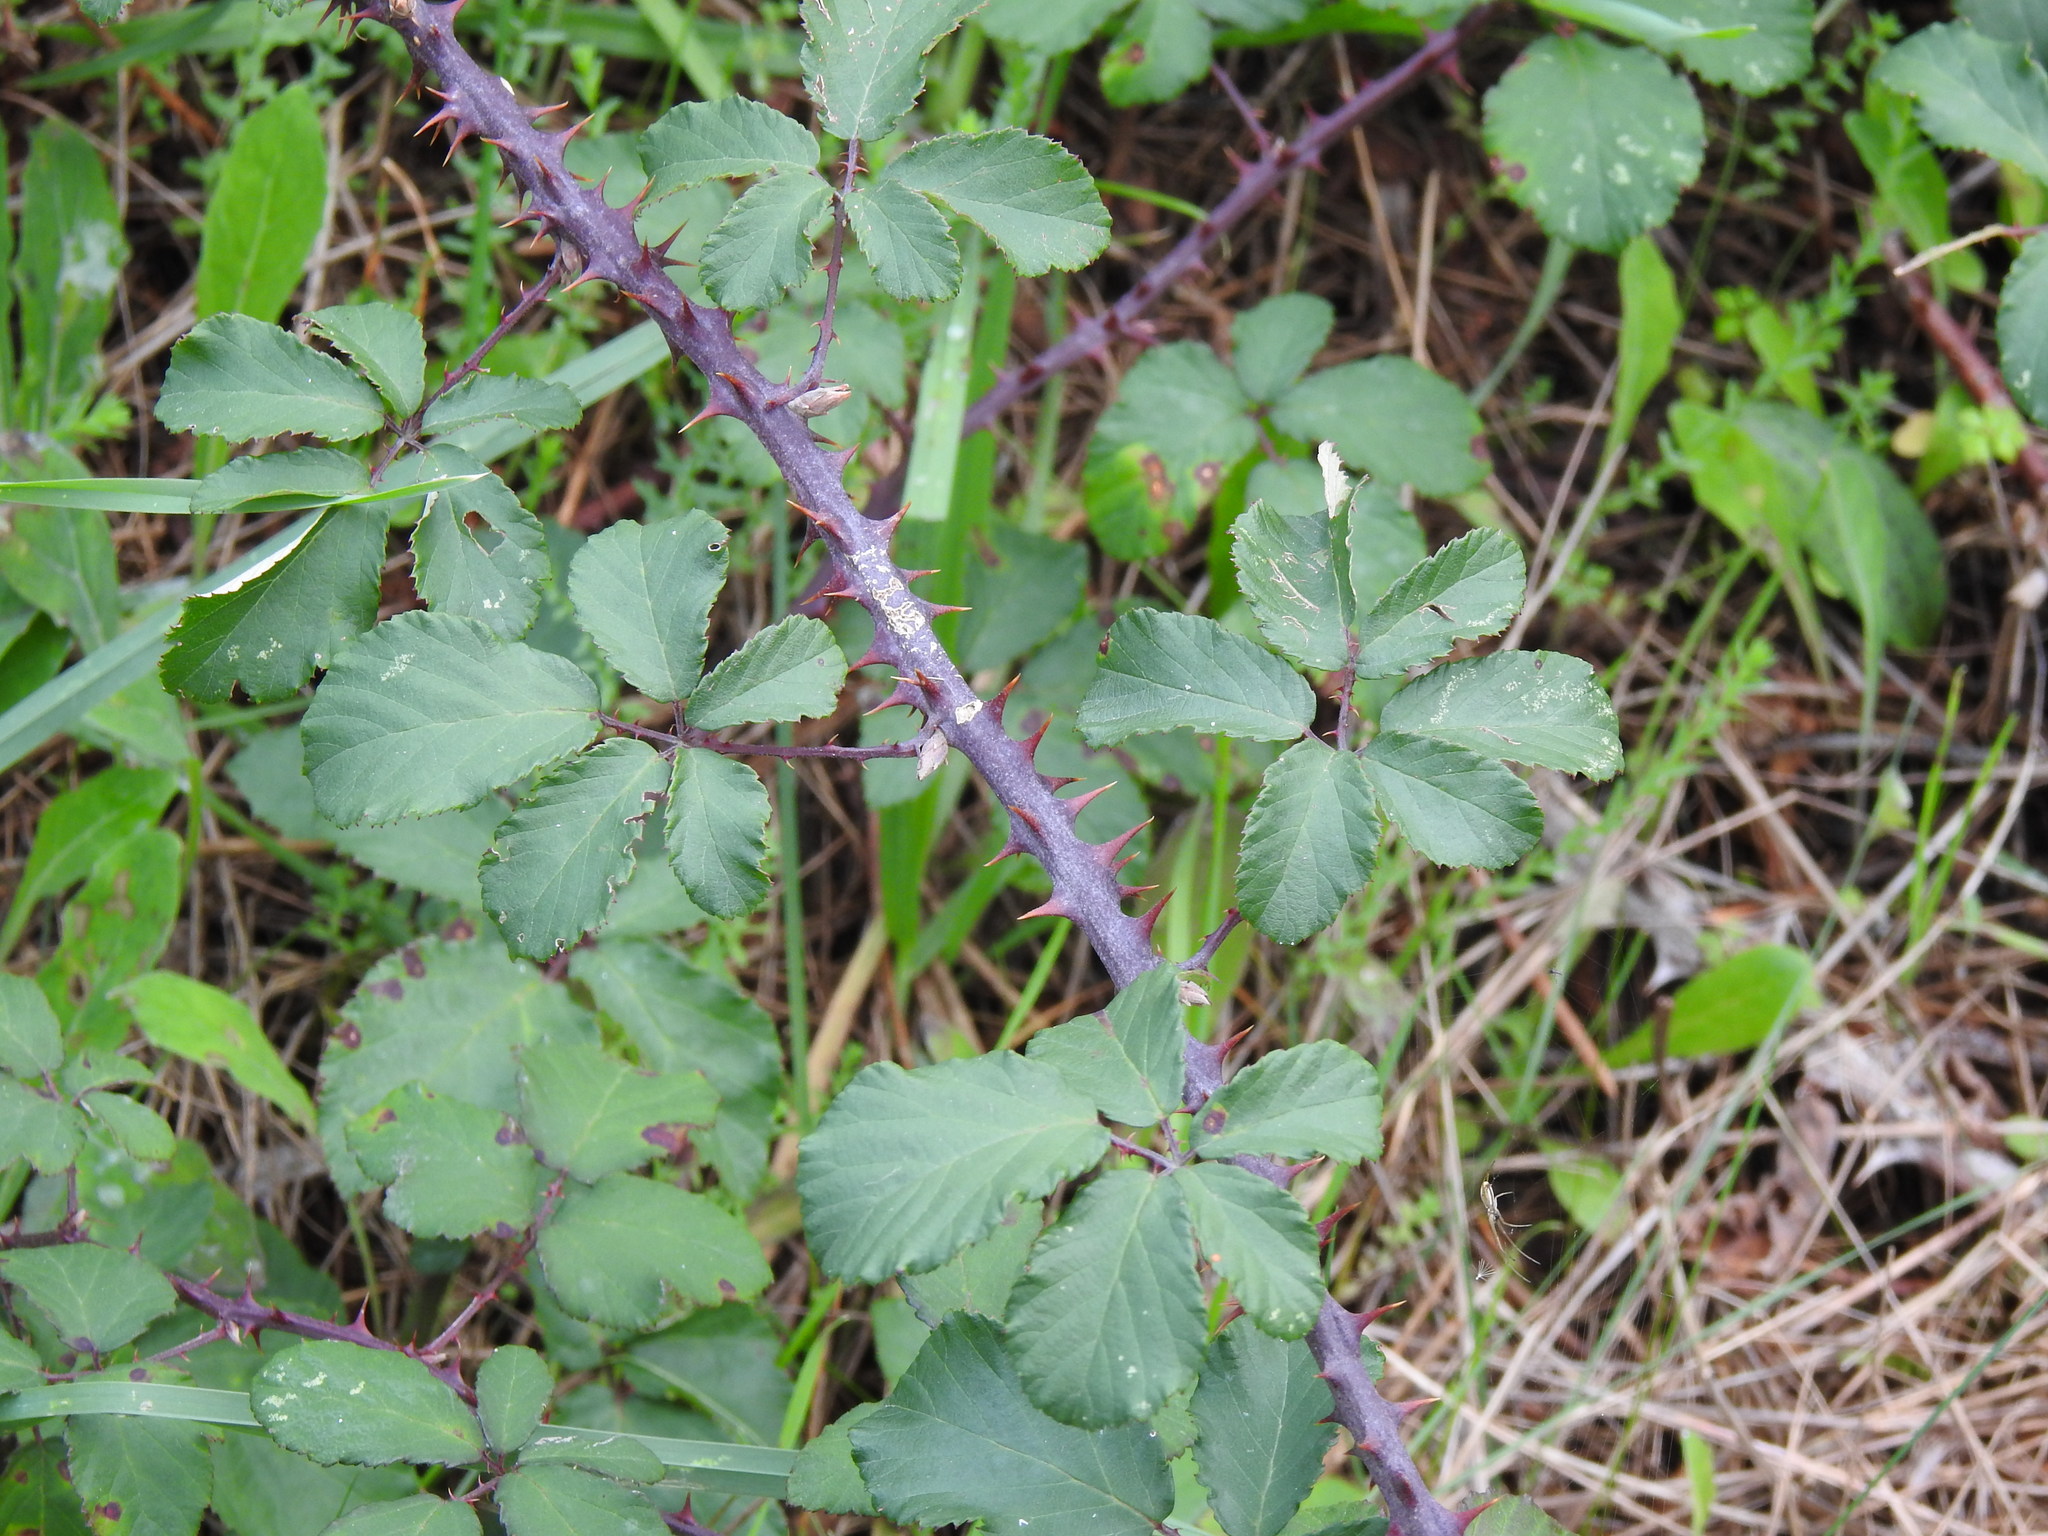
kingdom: Plantae
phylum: Tracheophyta
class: Magnoliopsida
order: Rosales
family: Rosaceae
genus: Rubus
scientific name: Rubus ulmifolius
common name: Elmleaf blackberry
